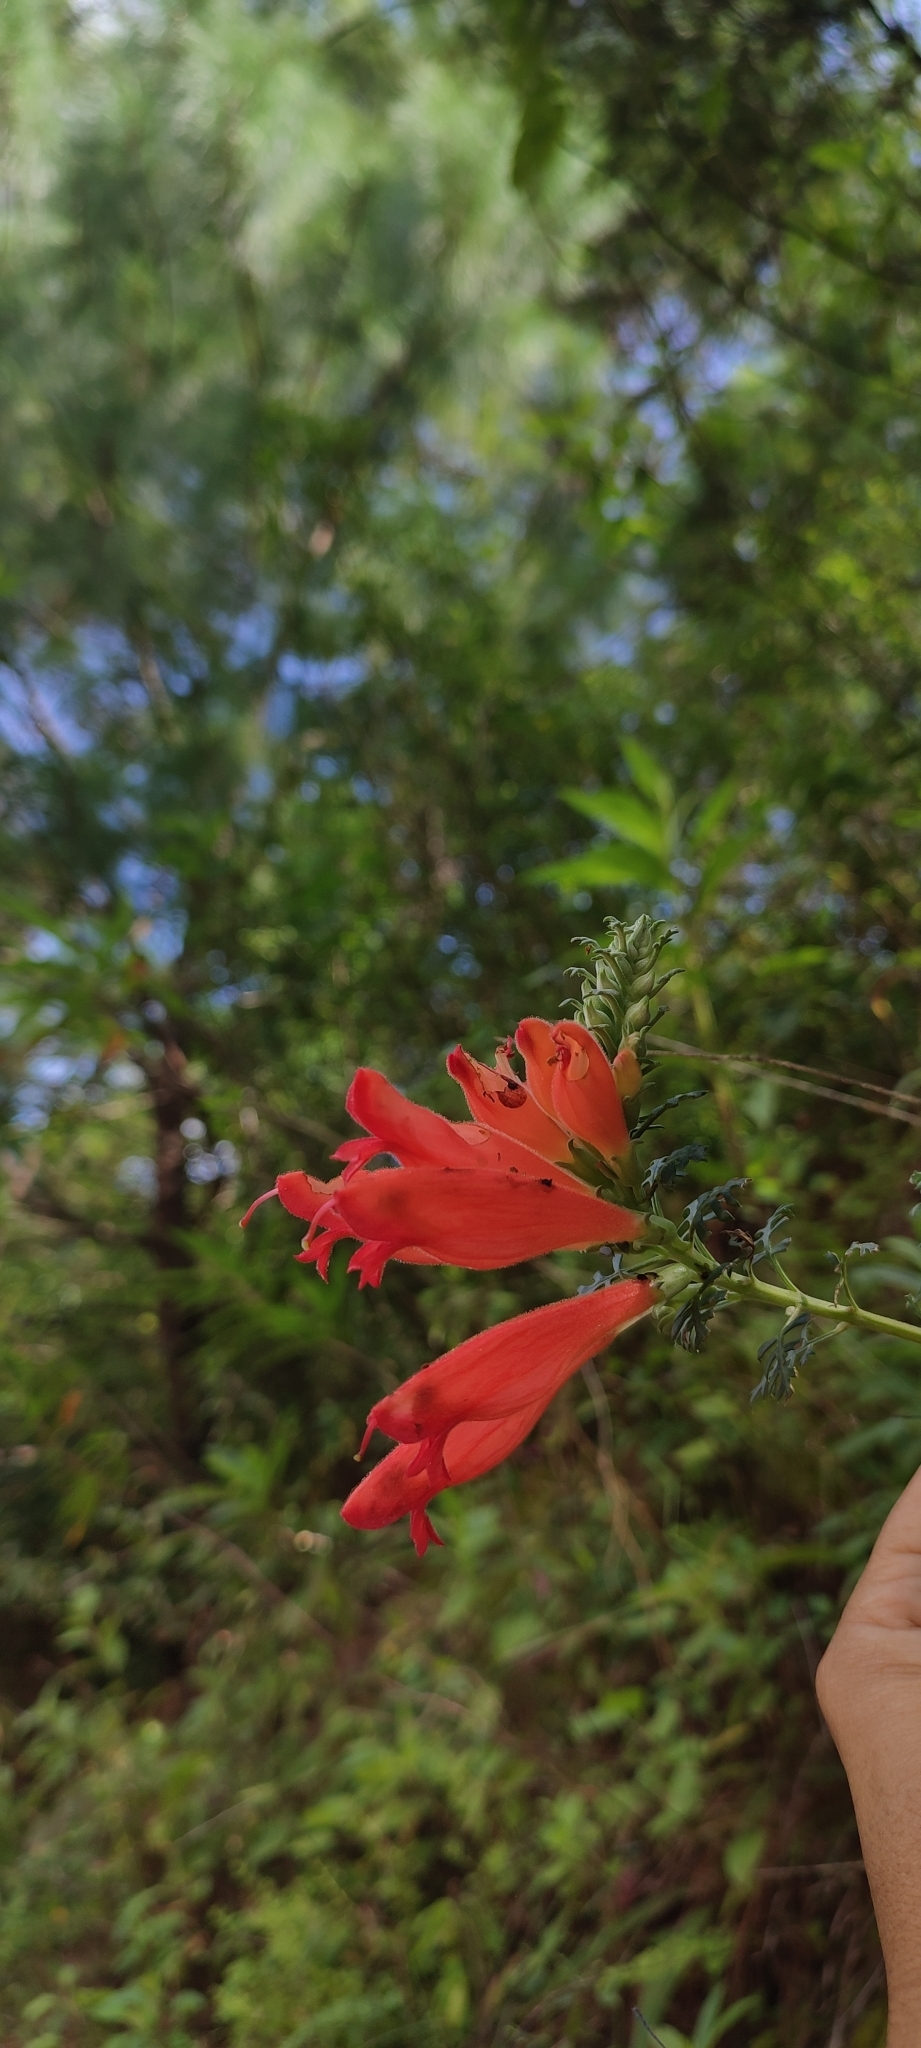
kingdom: Plantae
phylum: Tracheophyta
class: Magnoliopsida
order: Lamiales
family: Orobanchaceae
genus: Lamourouxia
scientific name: Lamourouxia multifida
